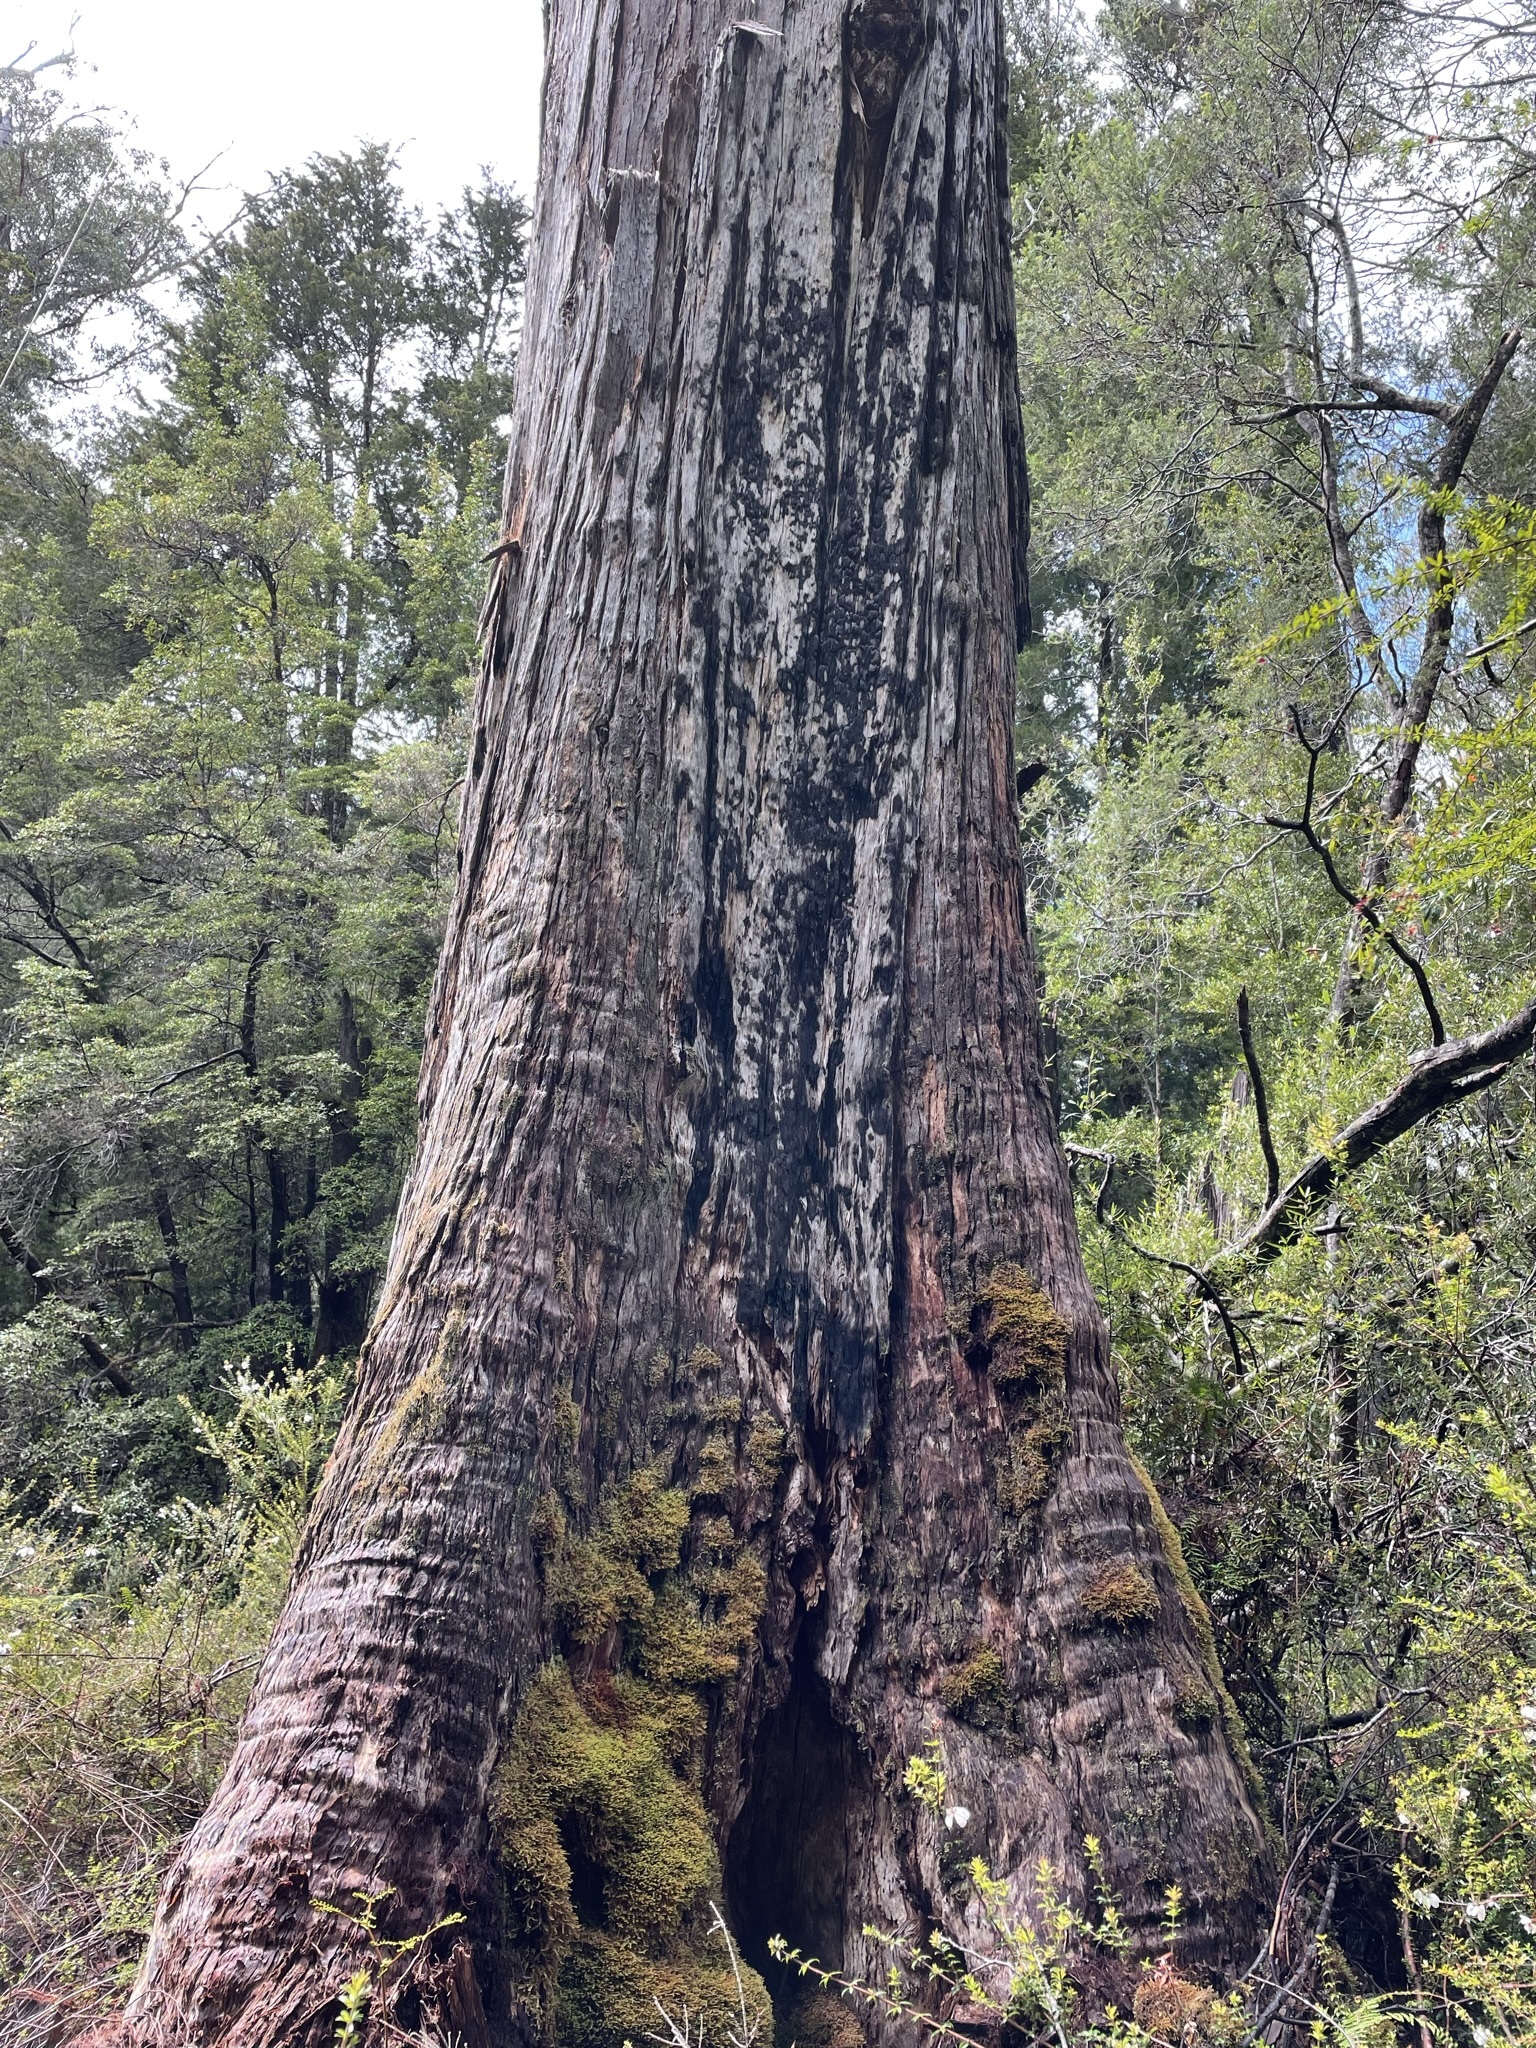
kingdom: Plantae
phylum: Tracheophyta
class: Magnoliopsida
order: Myrtales
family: Myrtaceae
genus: Eucalyptus
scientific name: Eucalyptus obliqua
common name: Messmate stringybark
